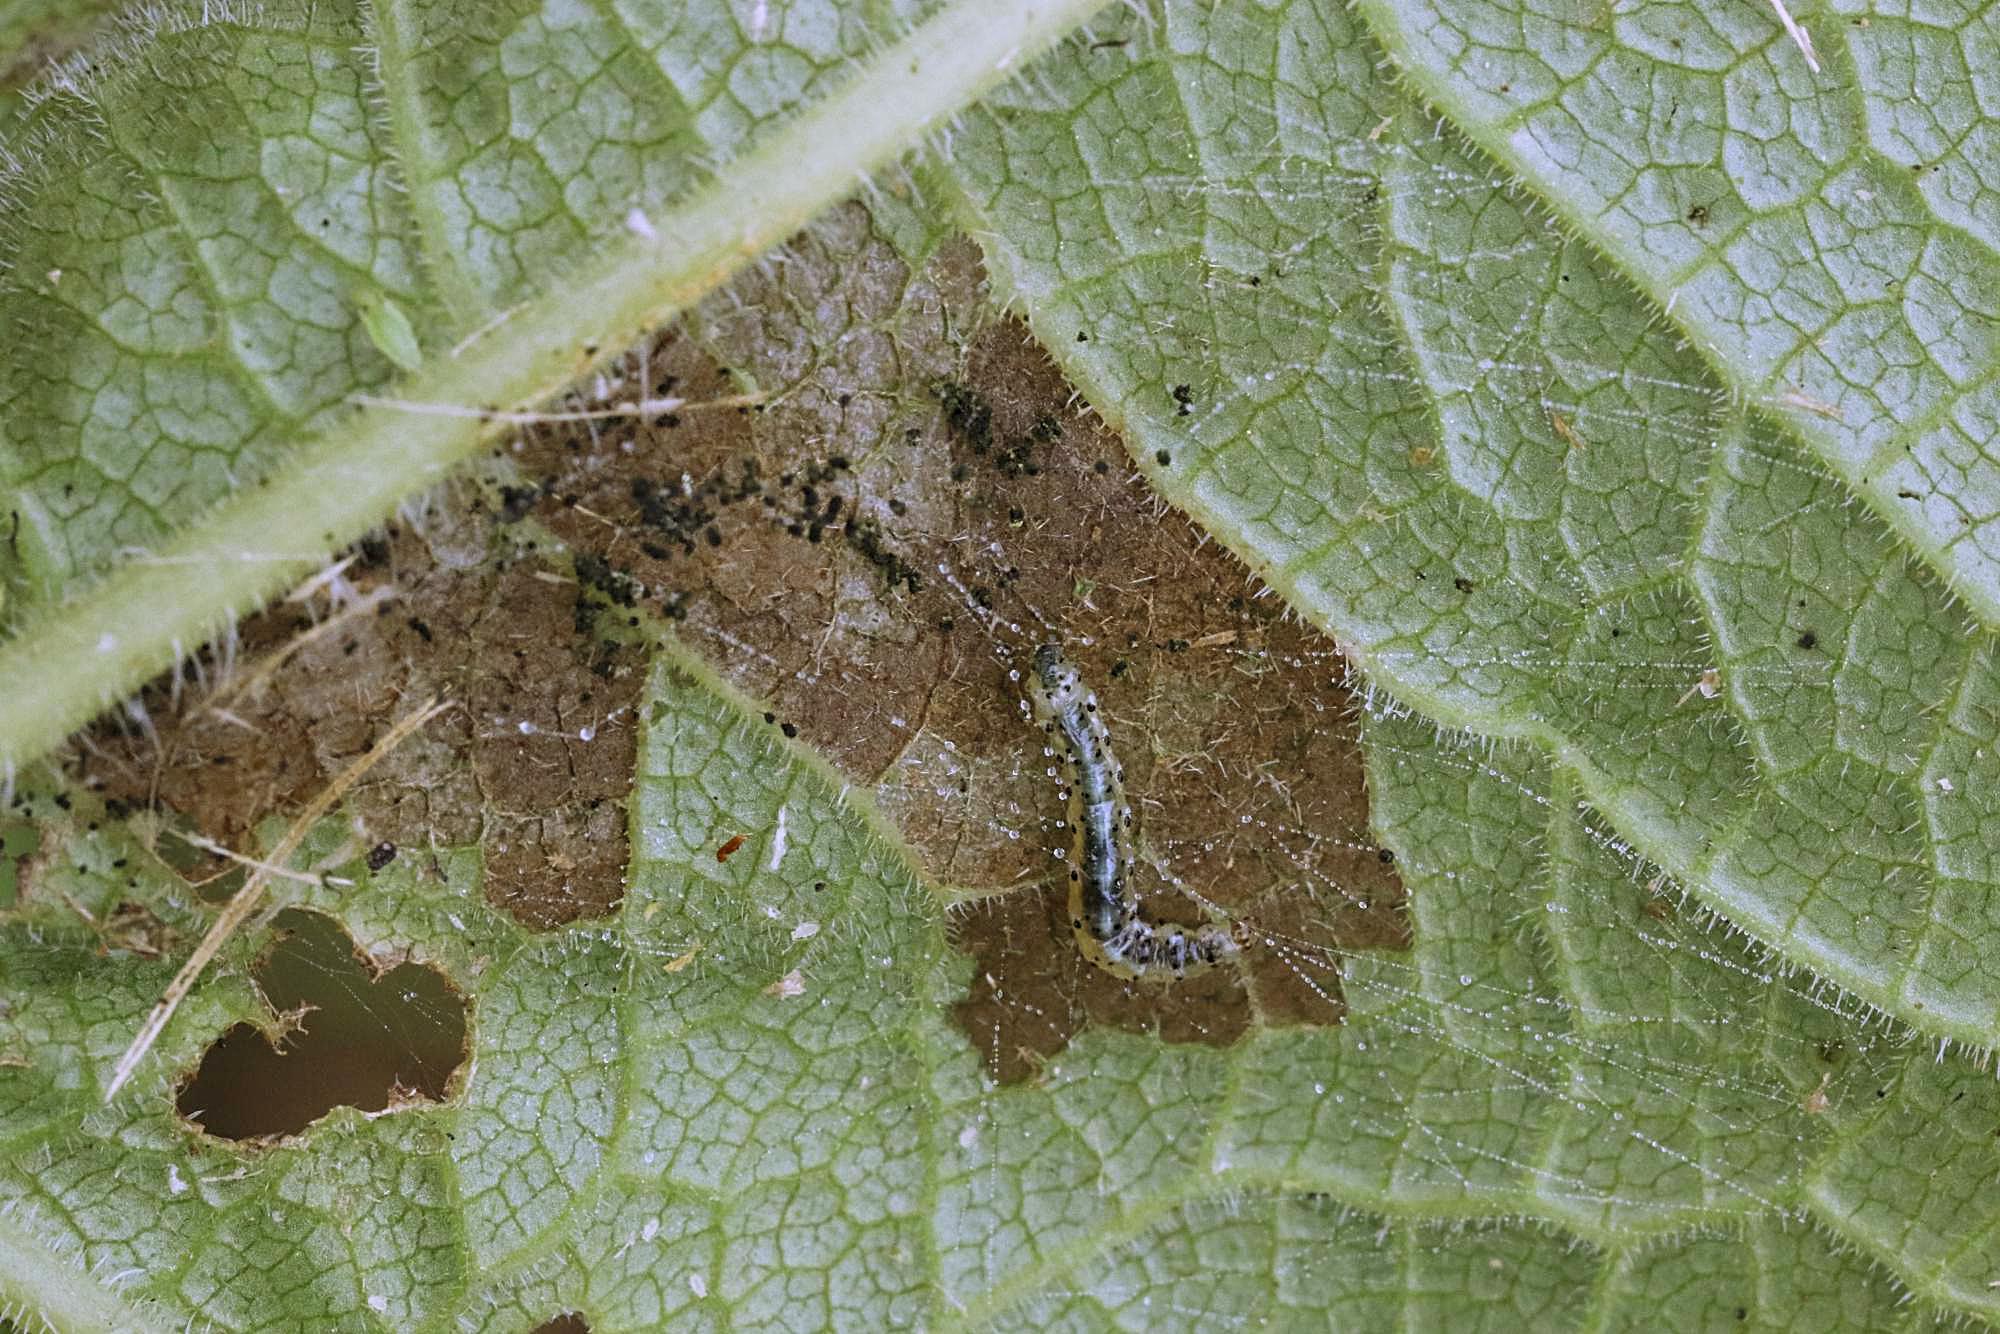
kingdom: Animalia
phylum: Arthropoda
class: Insecta
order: Lepidoptera
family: Epermeniidae
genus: Epermenia
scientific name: Epermenia chaerophyllellus
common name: Garden lance-wing
